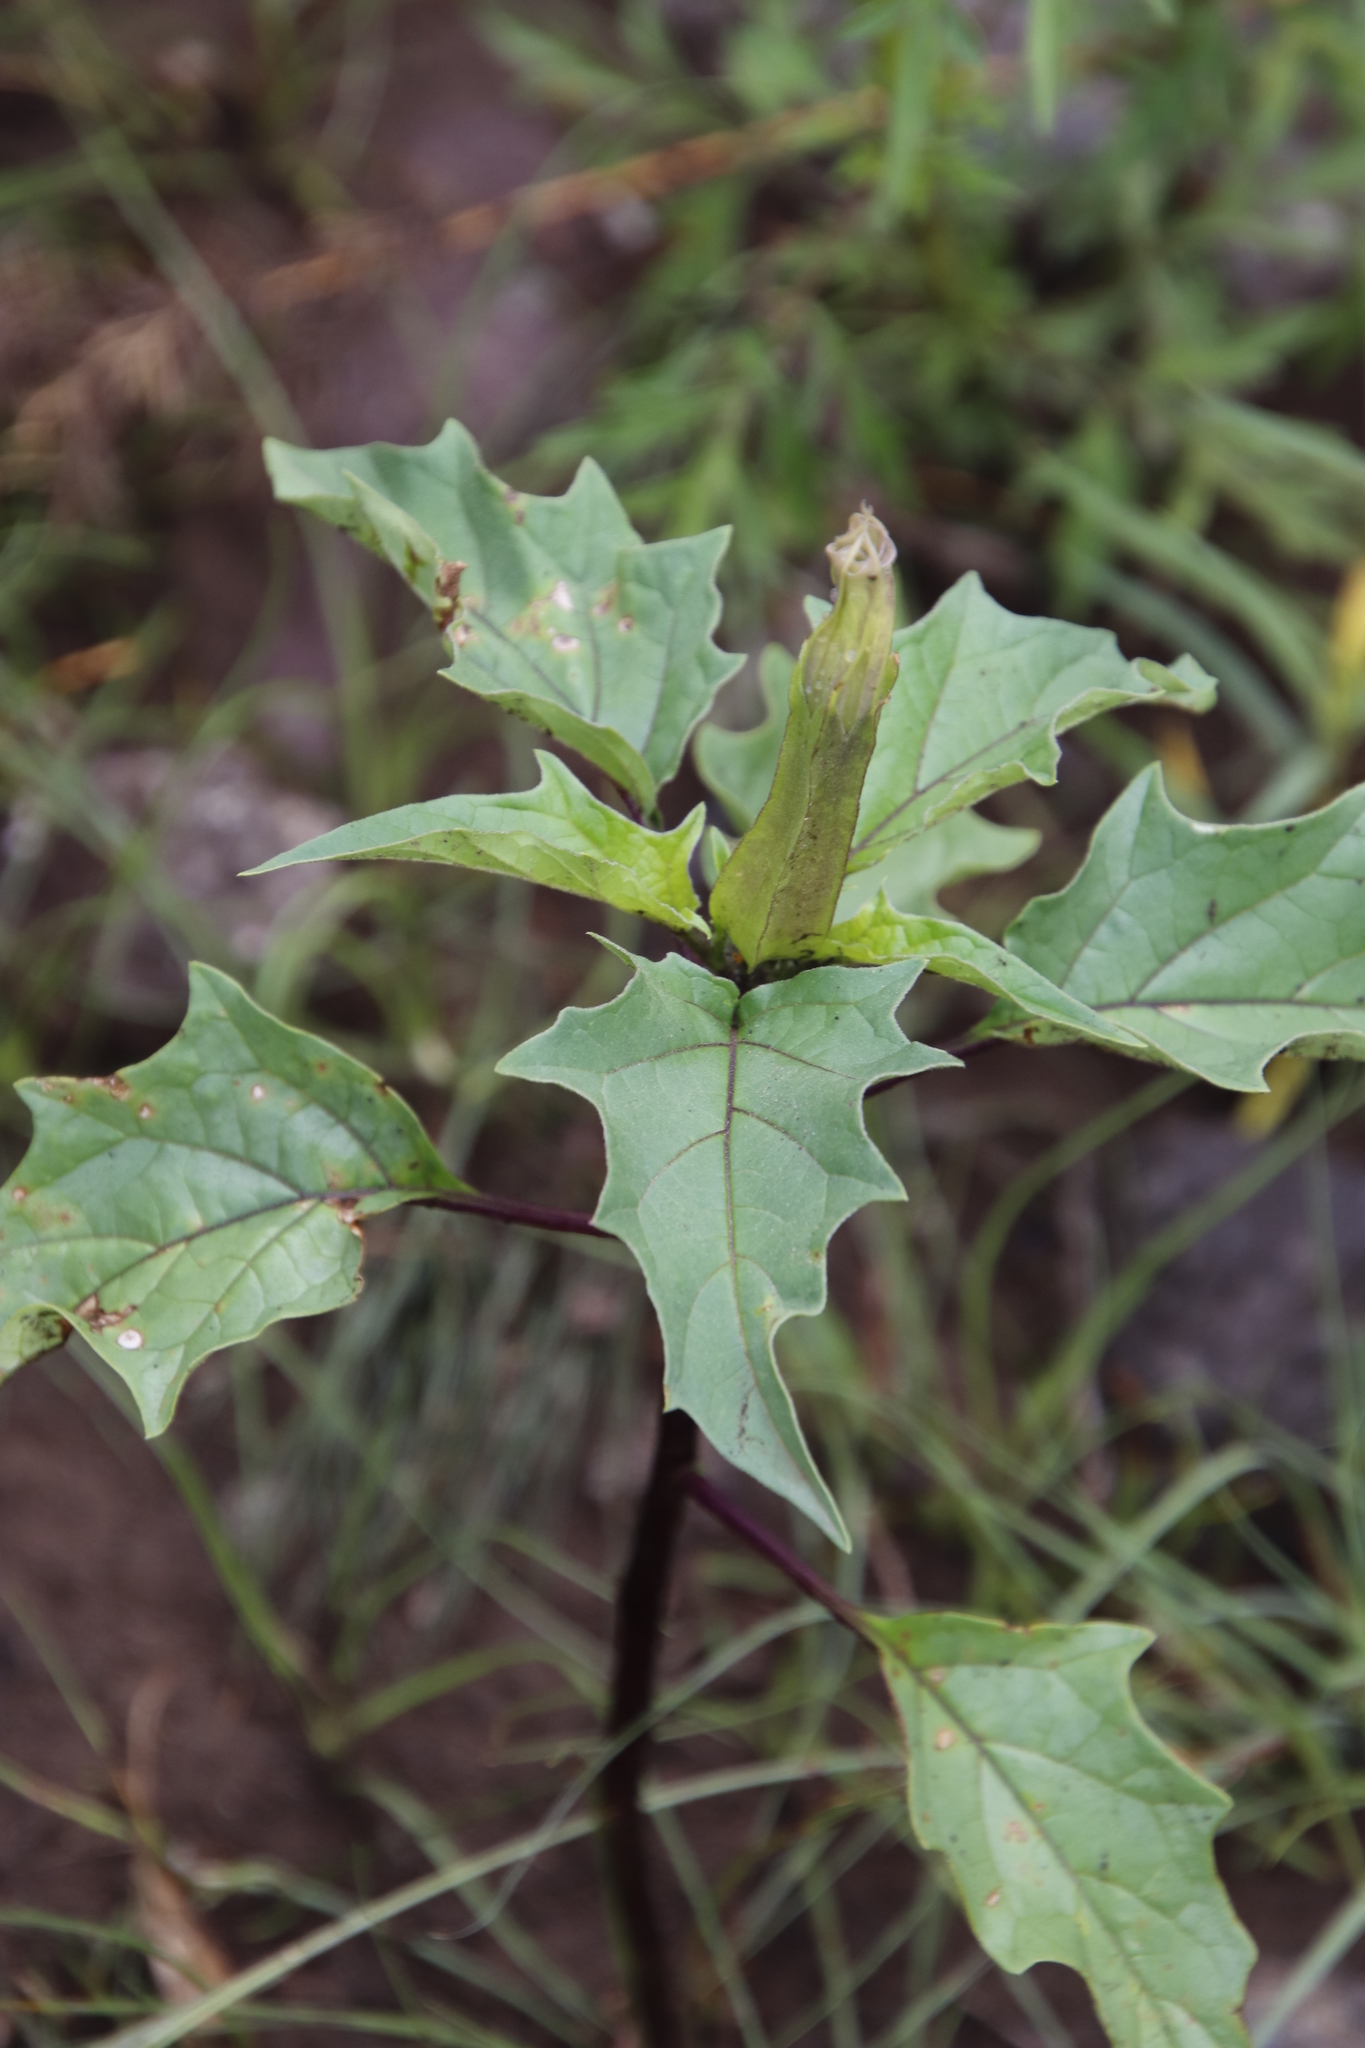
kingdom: Plantae
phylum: Tracheophyta
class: Magnoliopsida
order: Solanales
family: Solanaceae
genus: Datura
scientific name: Datura stramonium
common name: Thorn-apple
